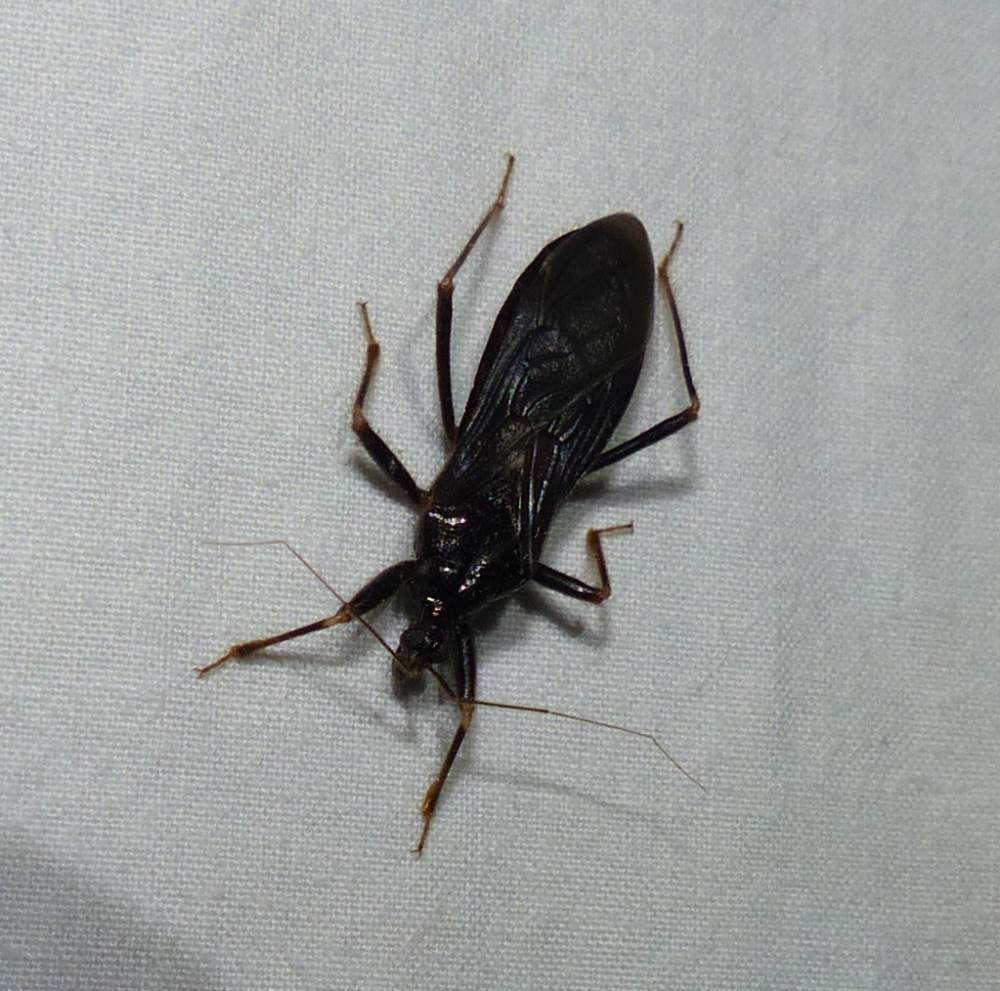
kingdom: Animalia
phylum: Arthropoda
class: Insecta
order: Hemiptera
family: Reduviidae
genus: Reduvius
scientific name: Reduvius personatus
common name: Masked hunter
